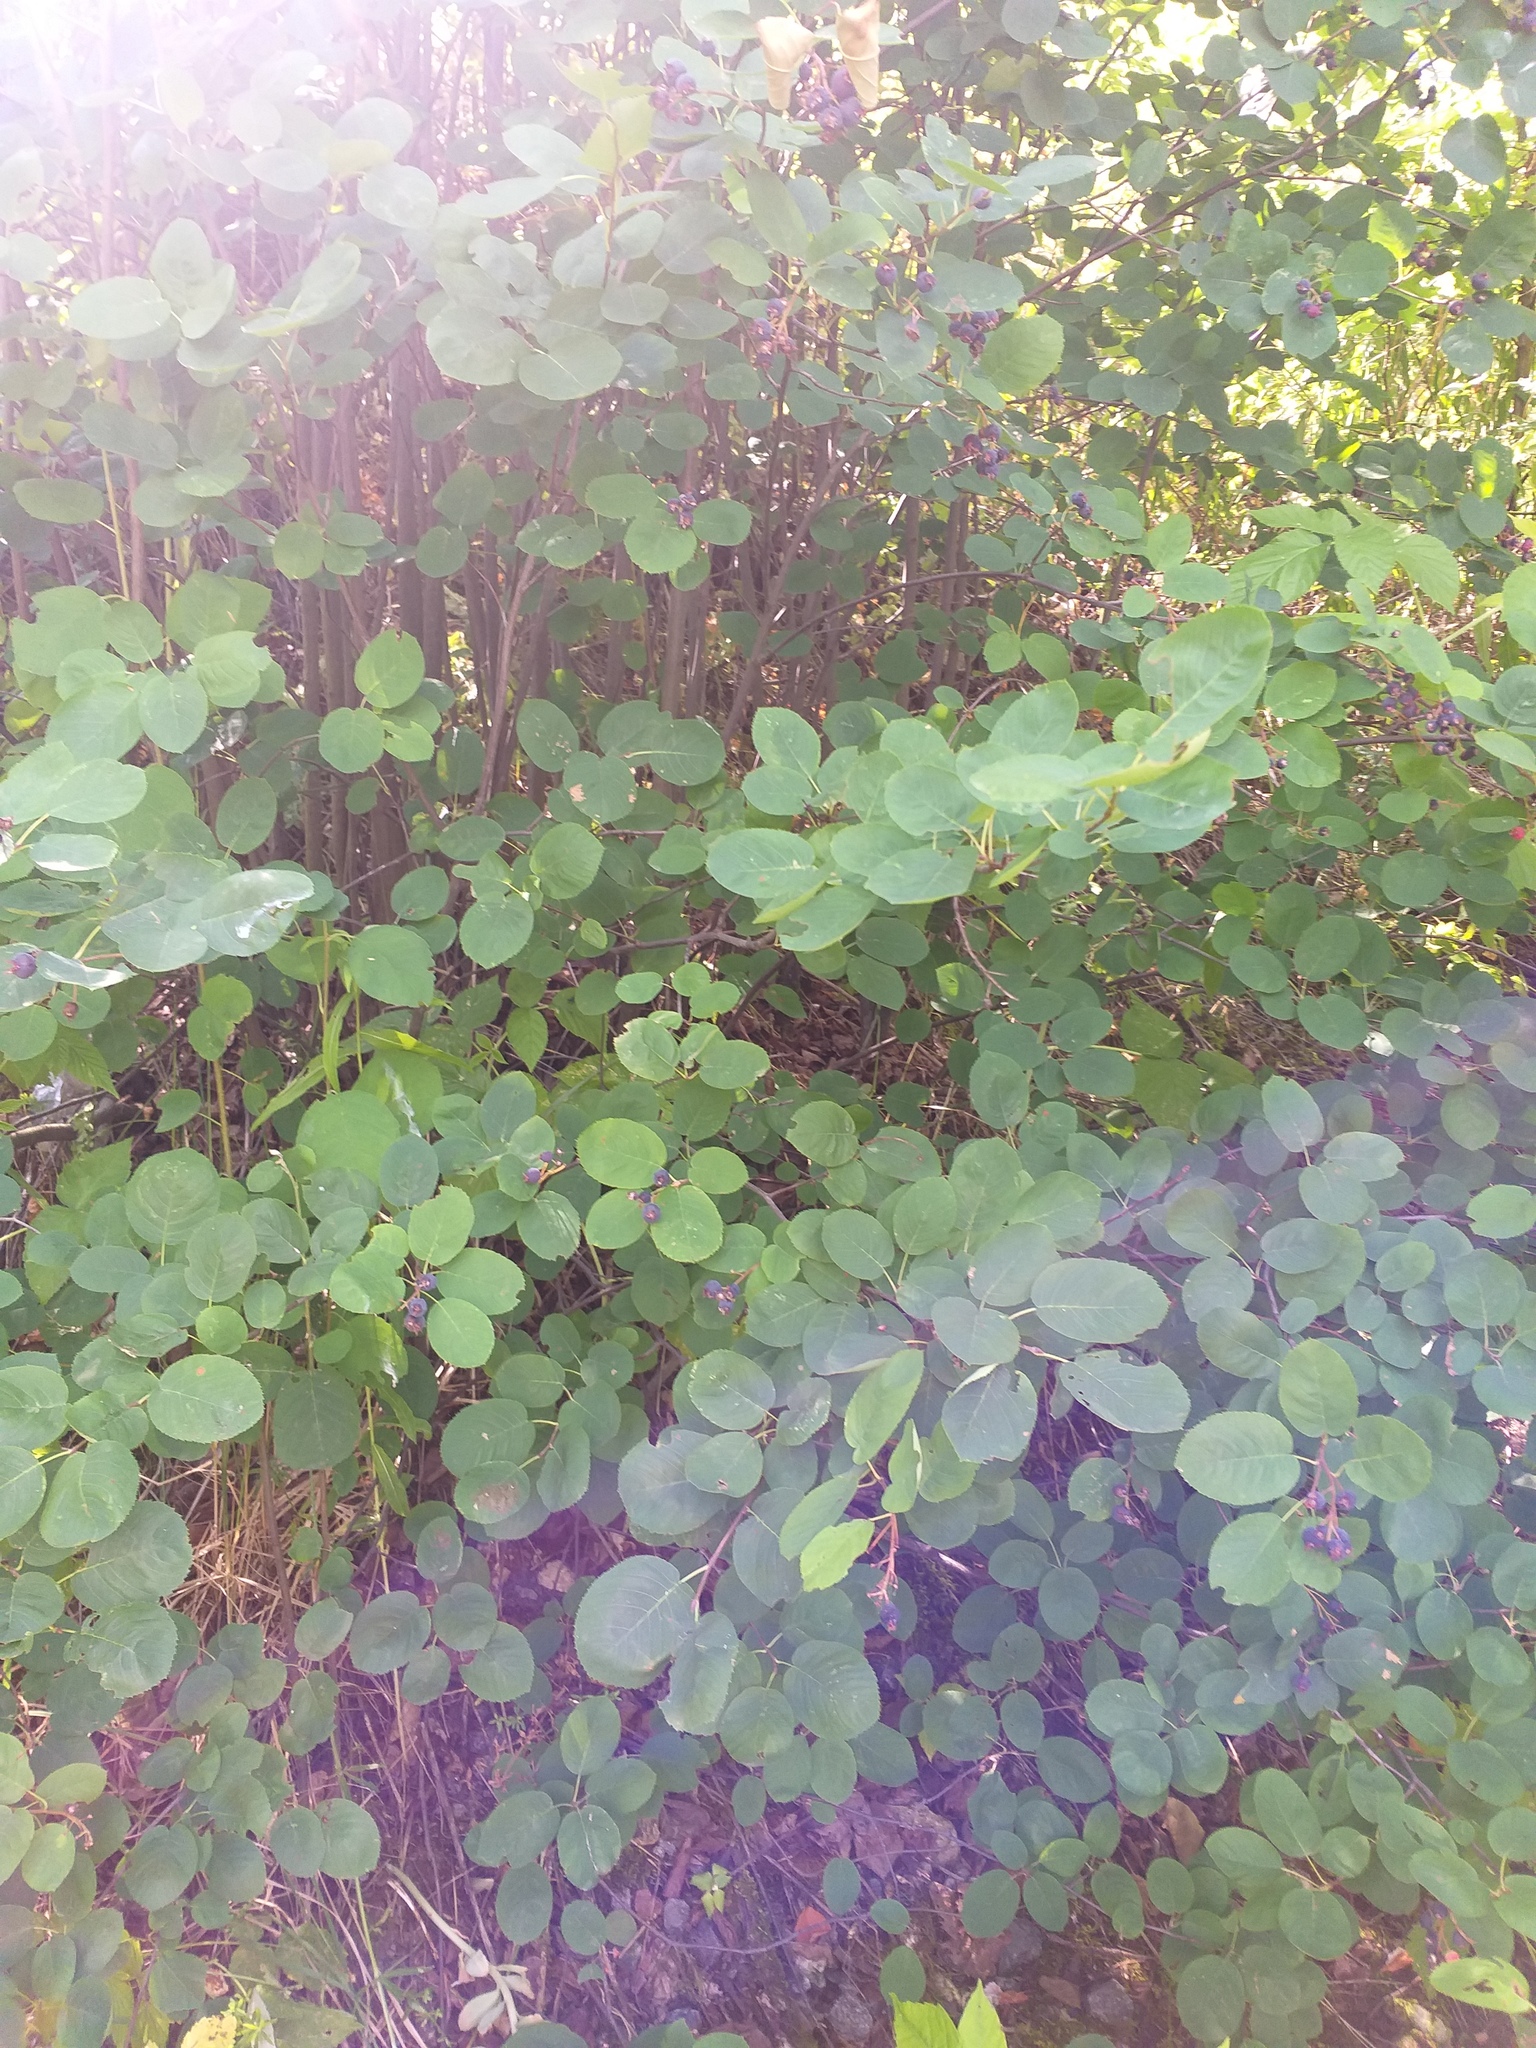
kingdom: Plantae
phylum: Tracheophyta
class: Magnoliopsida
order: Rosales
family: Rosaceae
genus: Amelanchier
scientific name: Amelanchier
